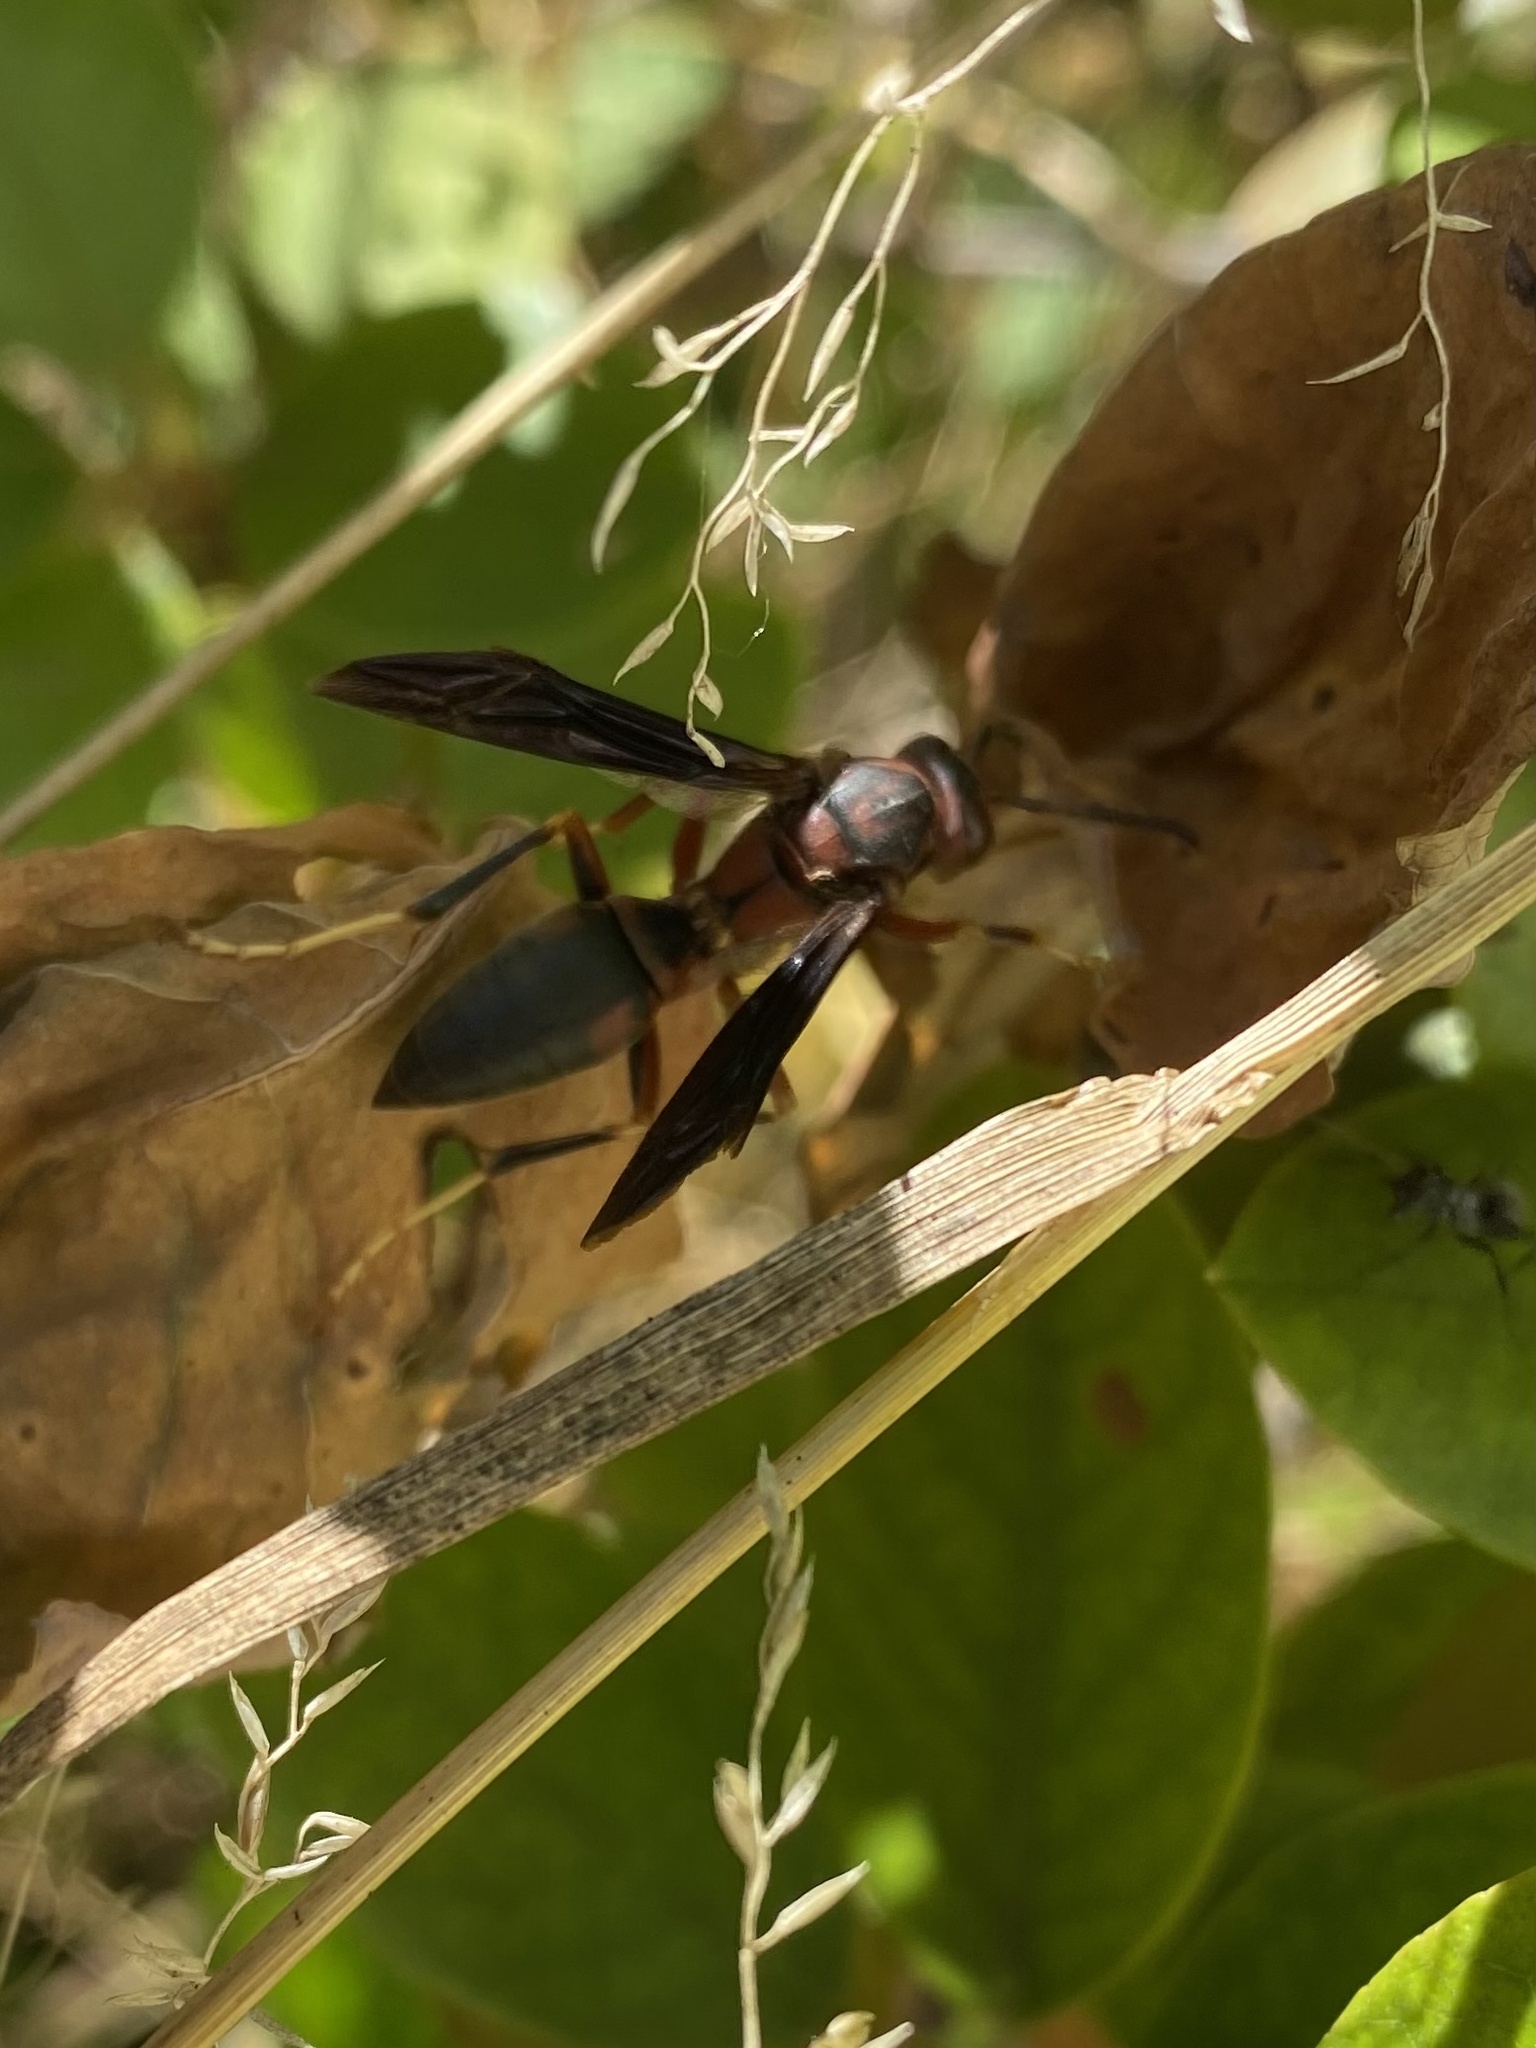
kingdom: Animalia
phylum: Arthropoda
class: Insecta
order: Hymenoptera
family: Eumenidae
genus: Polistes
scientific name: Polistes metricus
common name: Metric paper wasp
